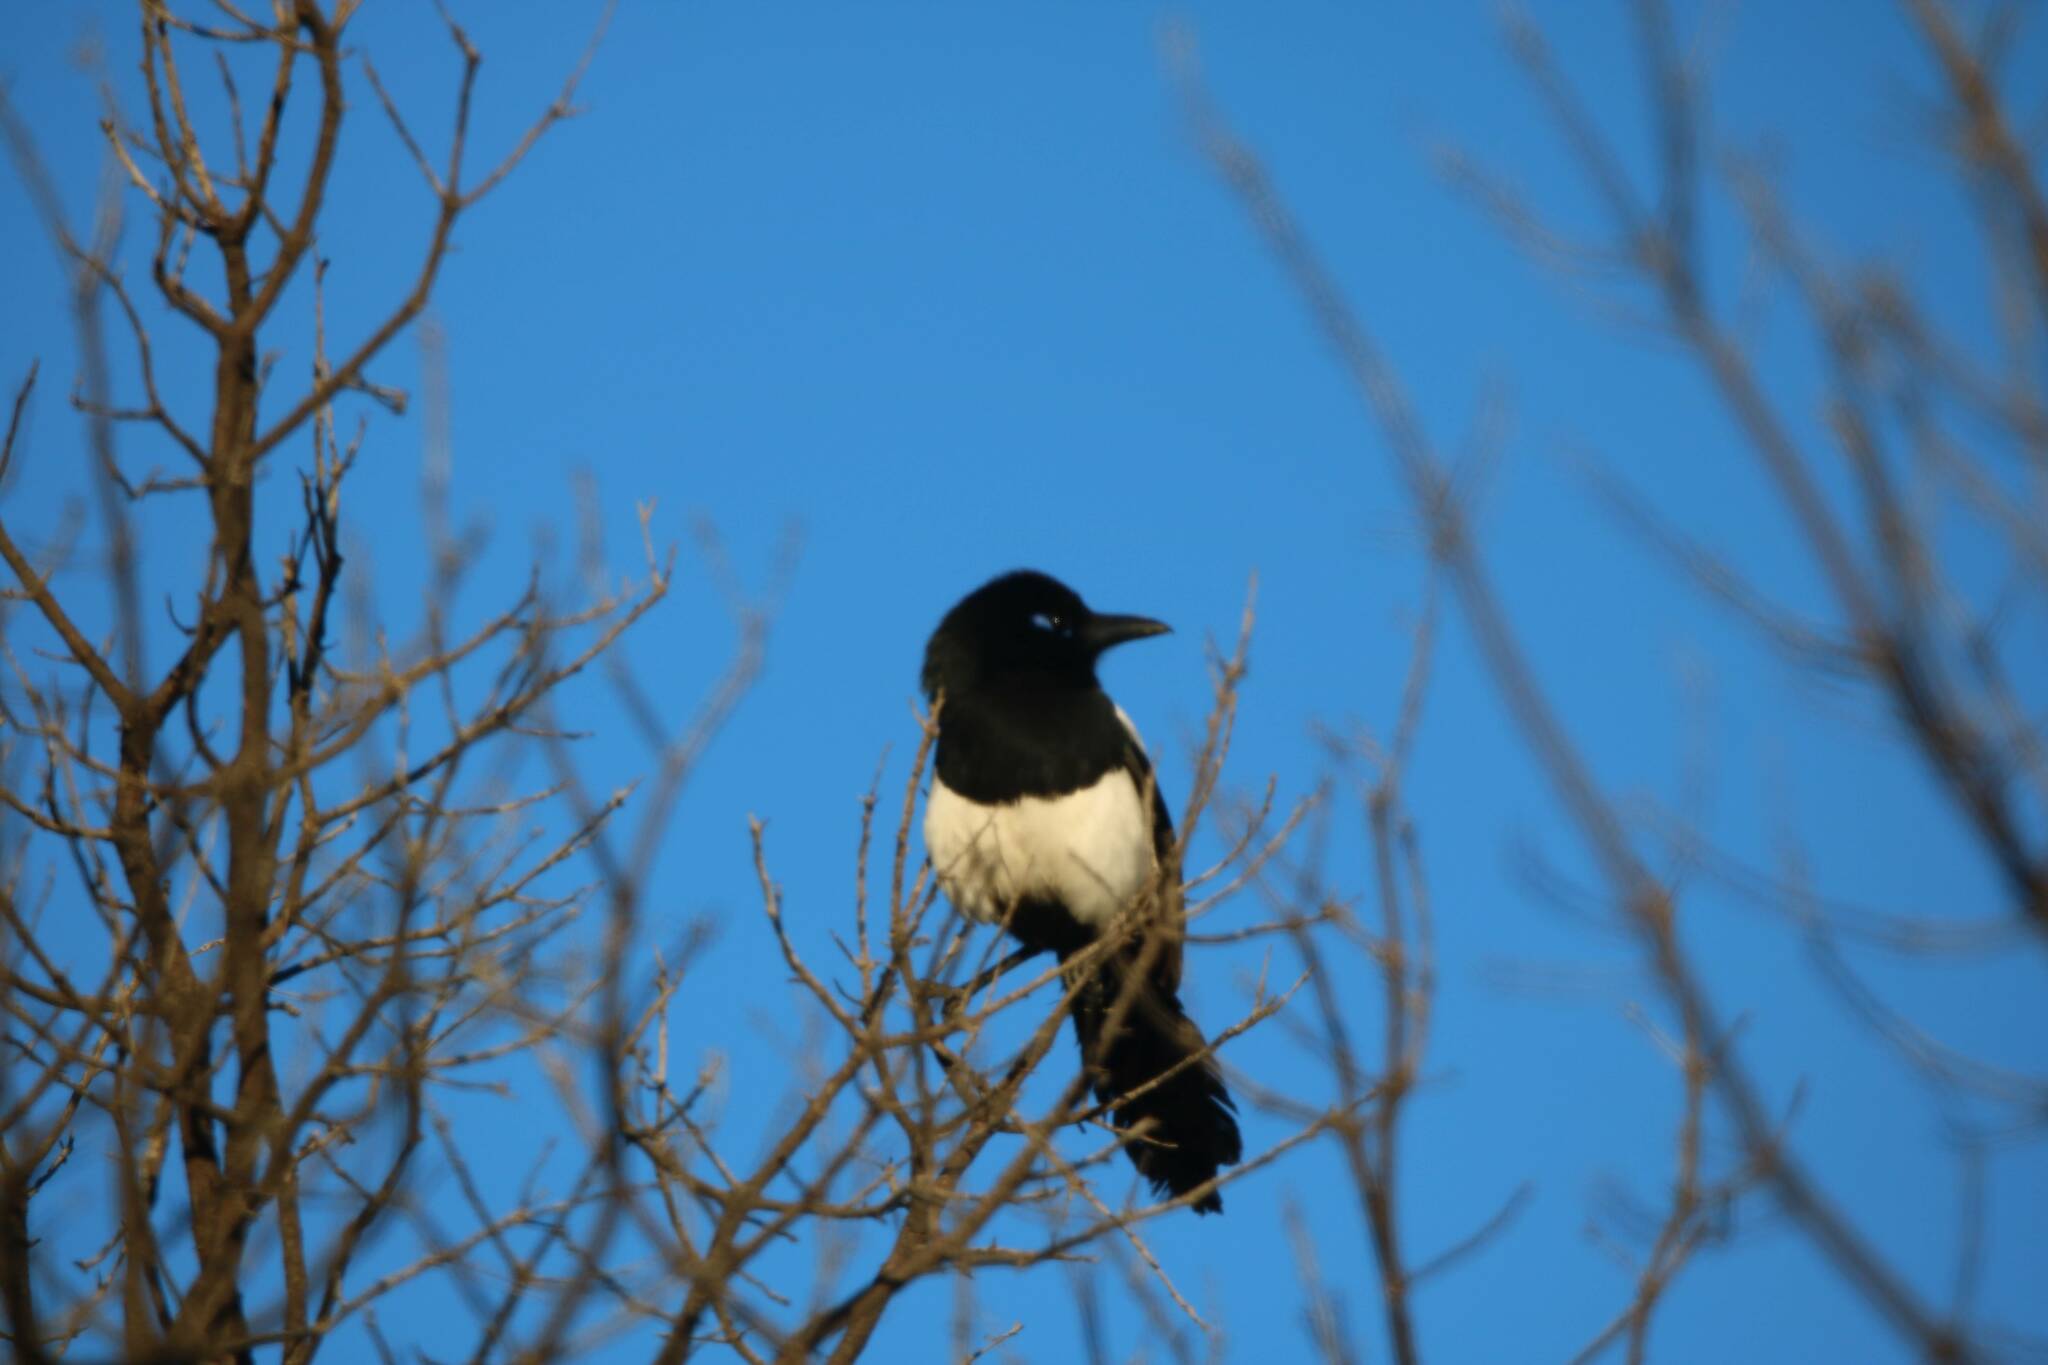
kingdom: Animalia
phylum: Chordata
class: Aves
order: Passeriformes
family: Corvidae
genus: Pica
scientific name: Pica mauritanica
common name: Maghreb magpie
